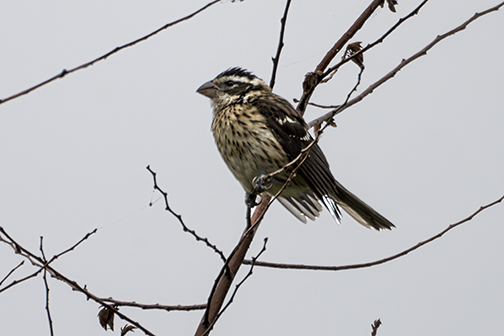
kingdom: Animalia
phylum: Chordata
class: Aves
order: Passeriformes
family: Cardinalidae
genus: Pheucticus
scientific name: Pheucticus ludovicianus
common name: Rose-breasted grosbeak
